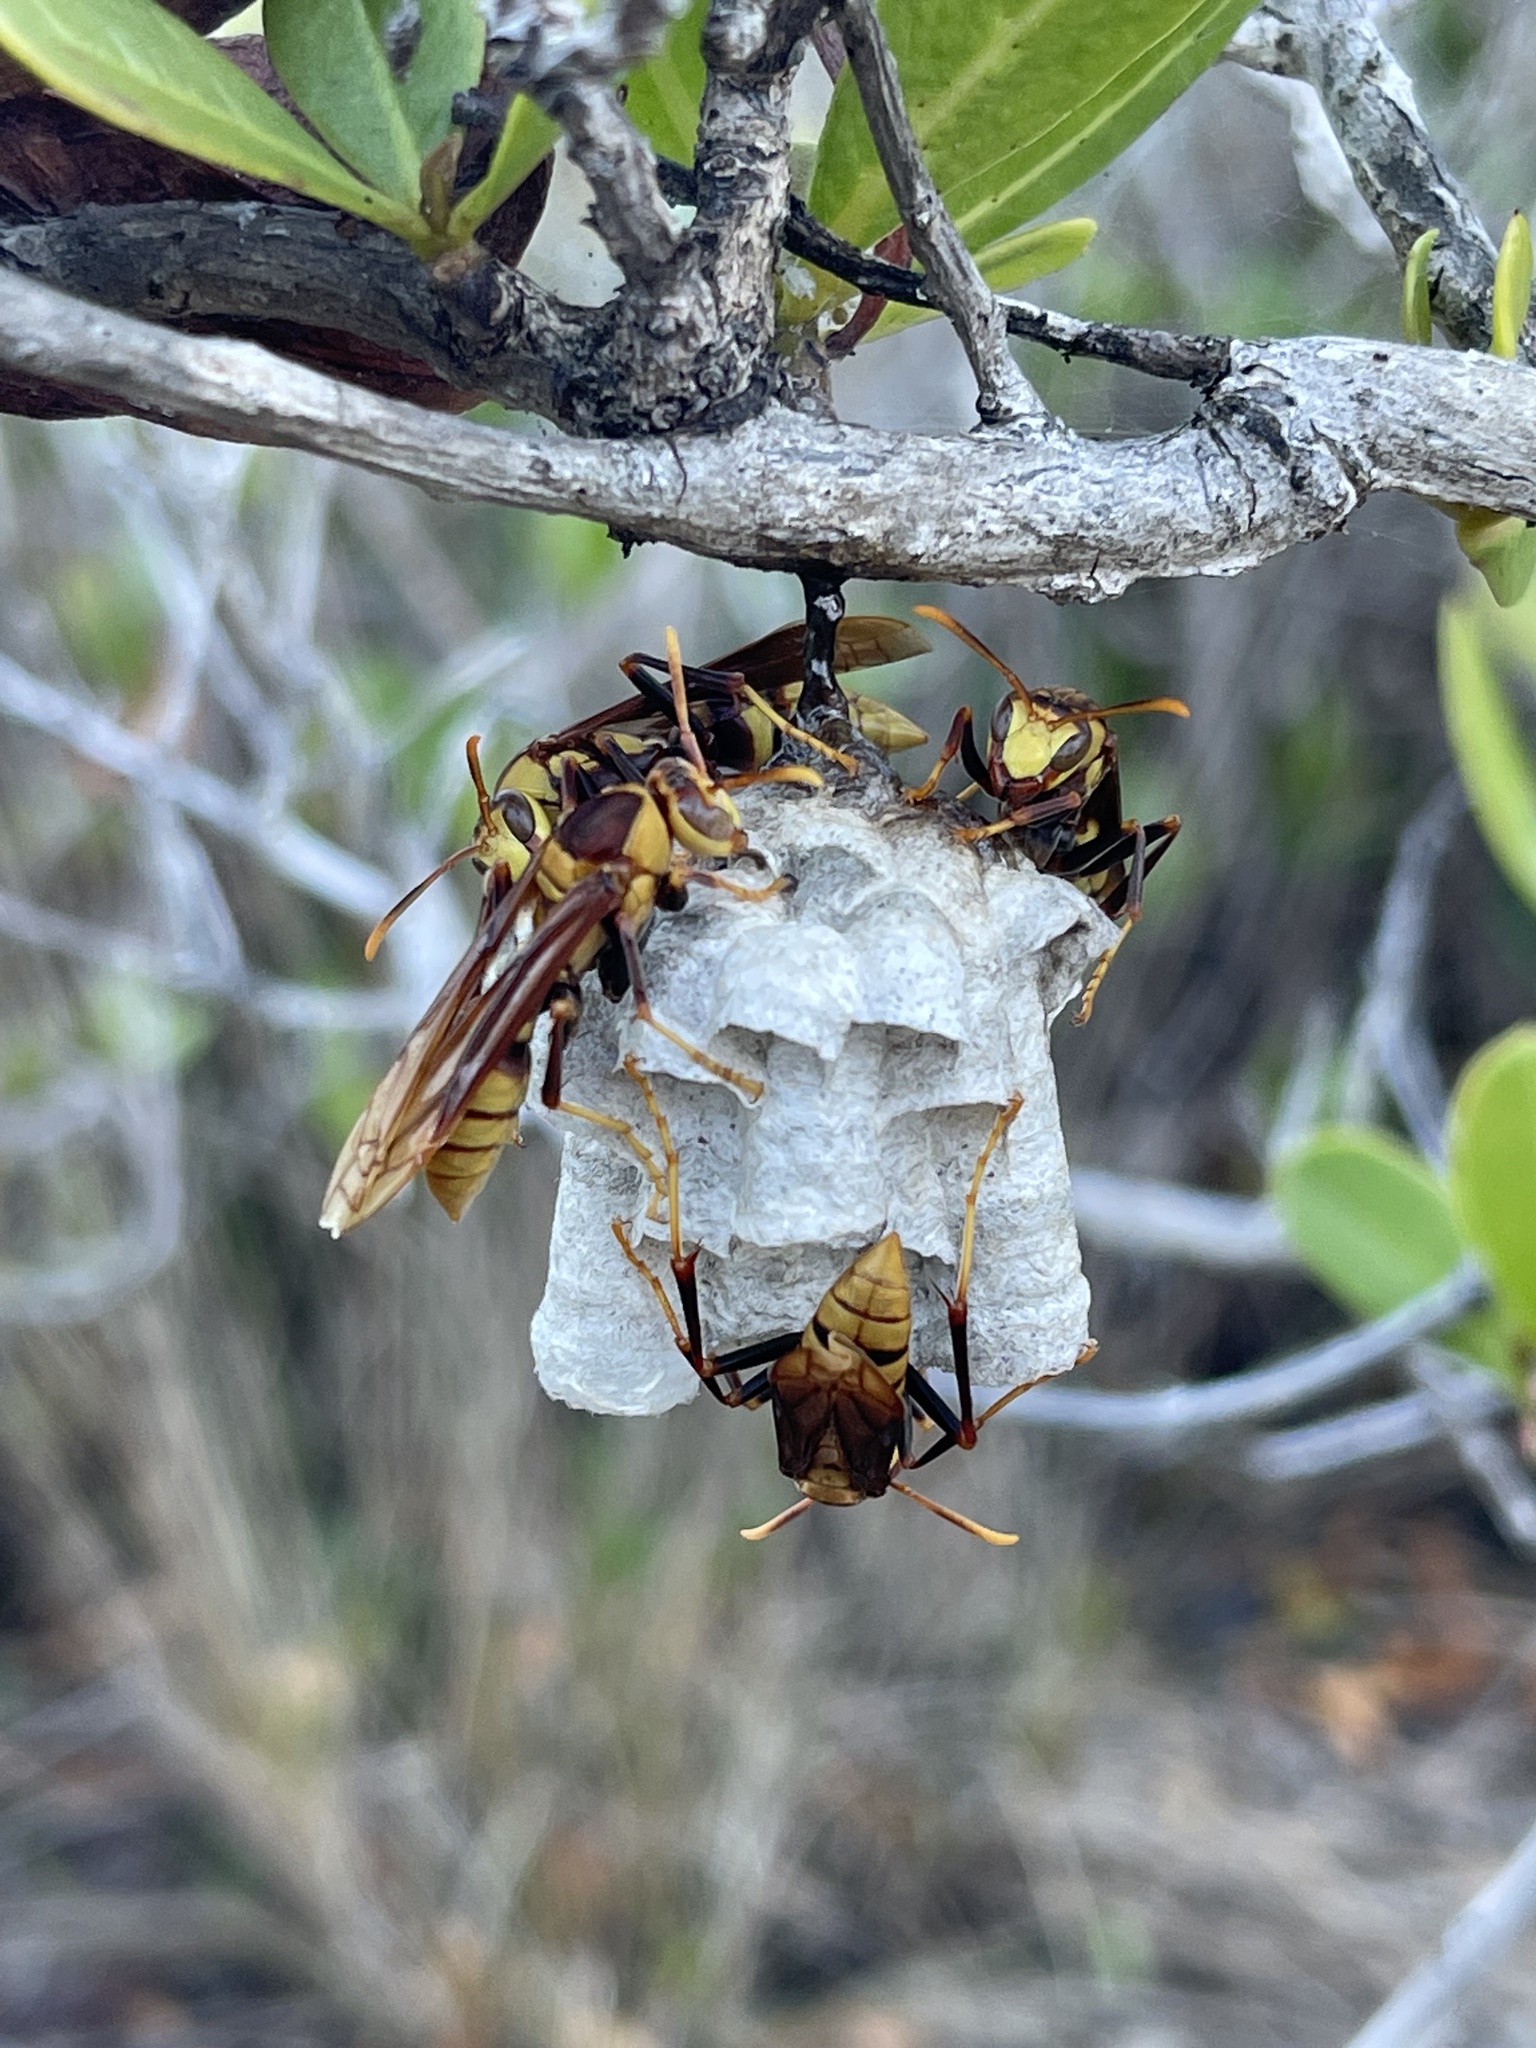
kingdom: Animalia
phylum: Arthropoda
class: Insecta
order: Hymenoptera
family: Eumenidae
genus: Polistes
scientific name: Polistes major
